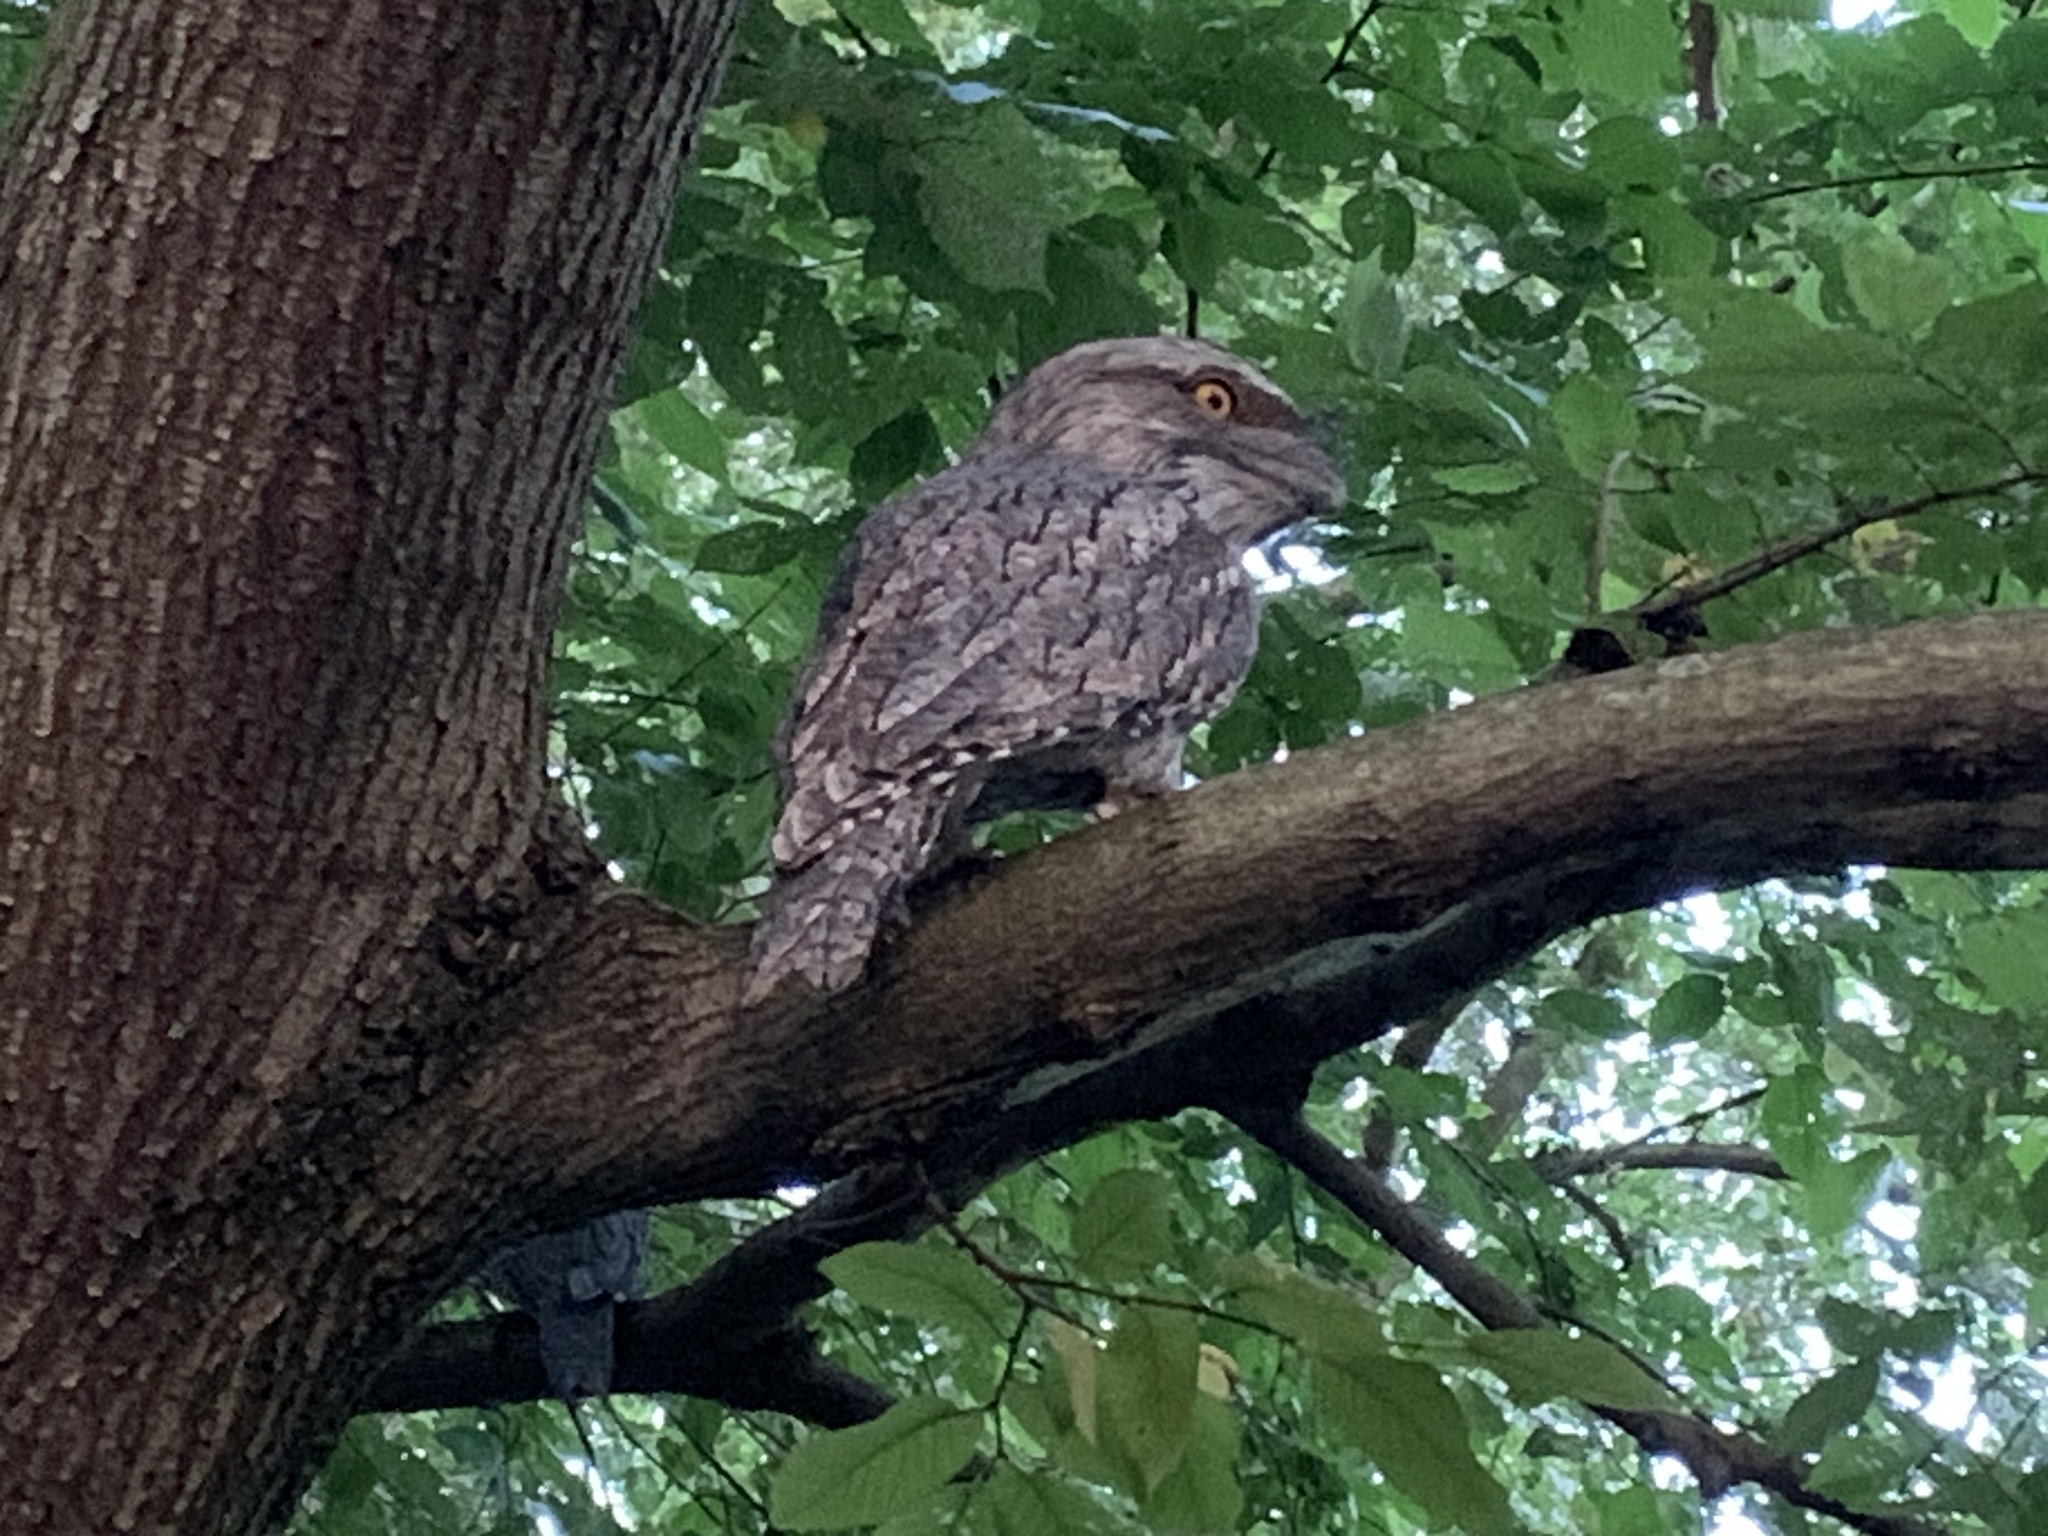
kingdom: Animalia
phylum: Chordata
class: Aves
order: Caprimulgiformes
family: Podargidae
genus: Podargus
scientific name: Podargus strigoides
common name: Tawny frogmouth
